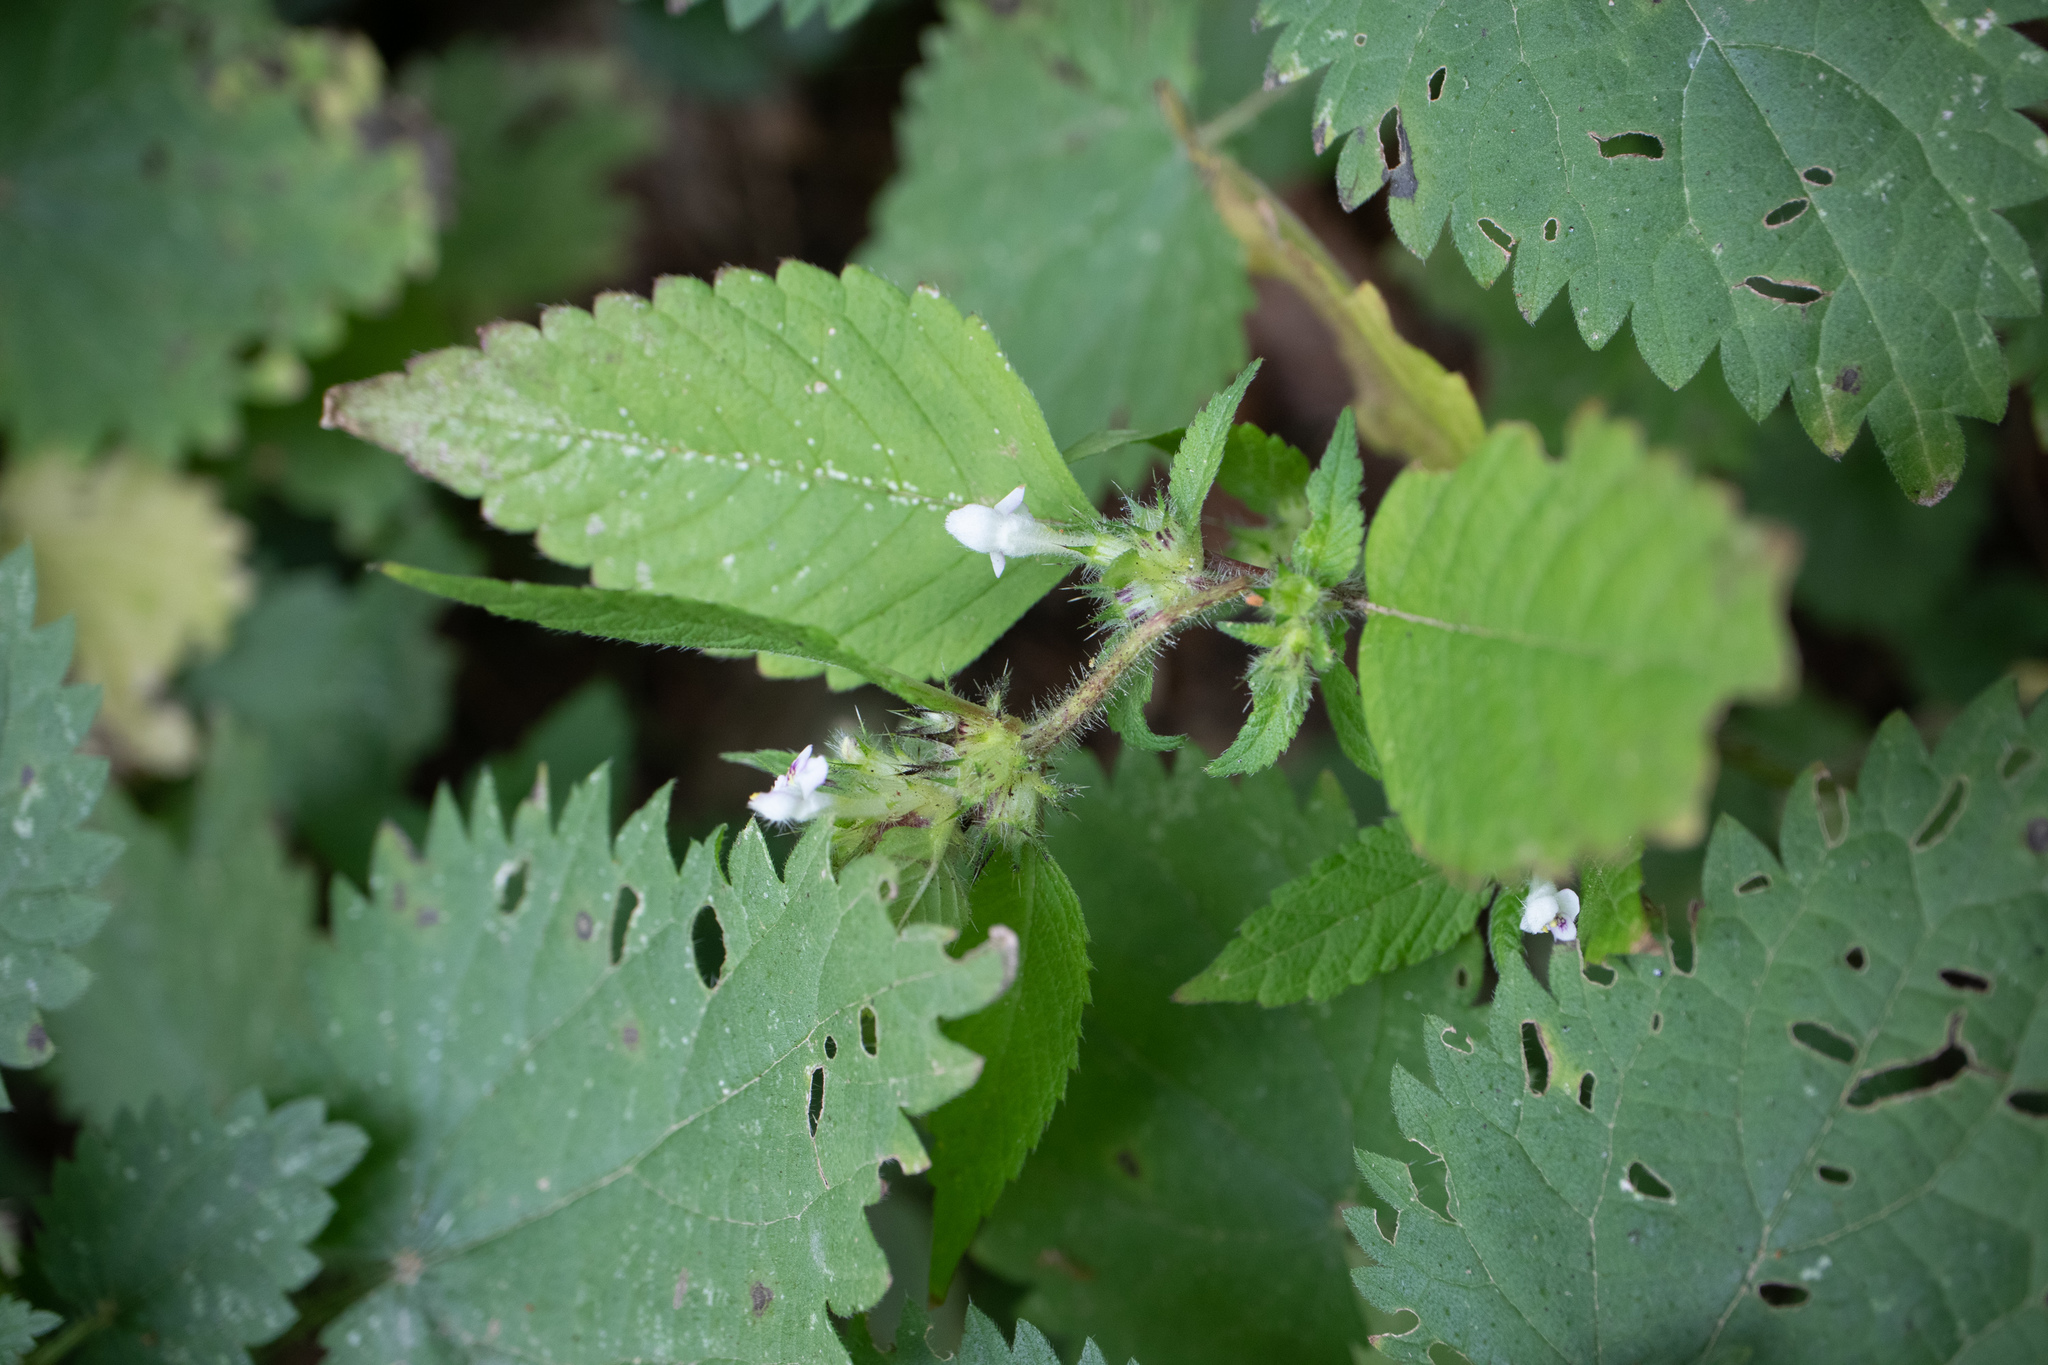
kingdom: Plantae
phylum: Tracheophyta
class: Magnoliopsida
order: Lamiales
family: Lamiaceae
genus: Galeopsis
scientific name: Galeopsis tetrahit
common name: Common hemp-nettle
